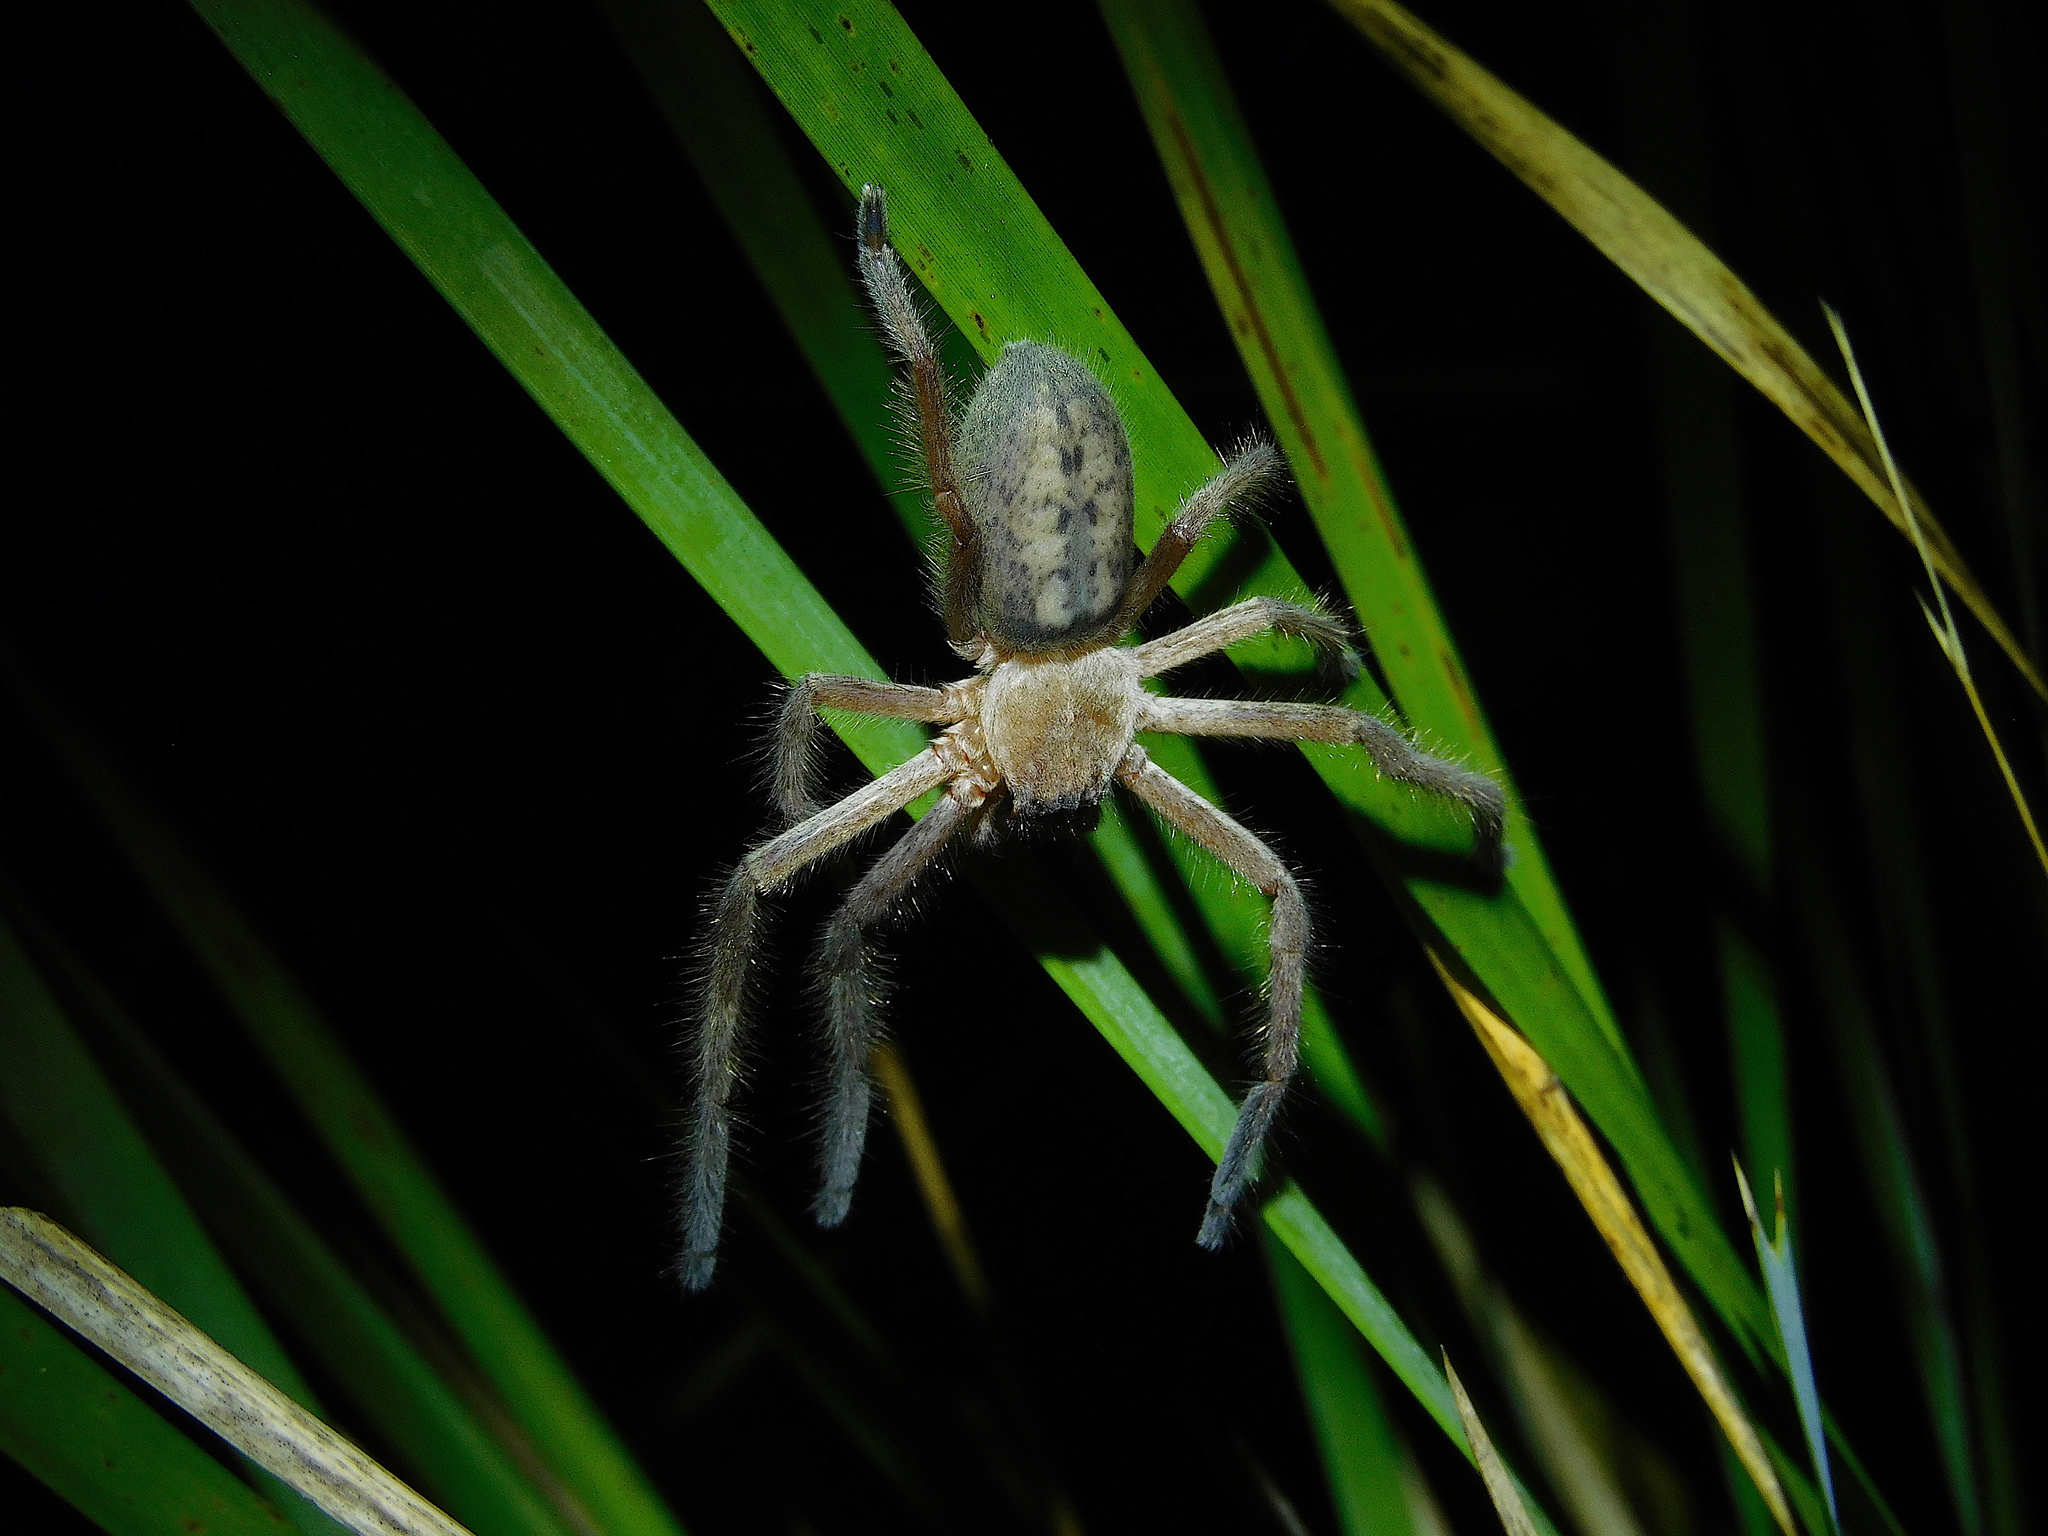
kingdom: Animalia
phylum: Arthropoda
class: Arachnida
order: Araneae
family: Sparassidae
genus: Delena
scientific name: Delena cancerides
